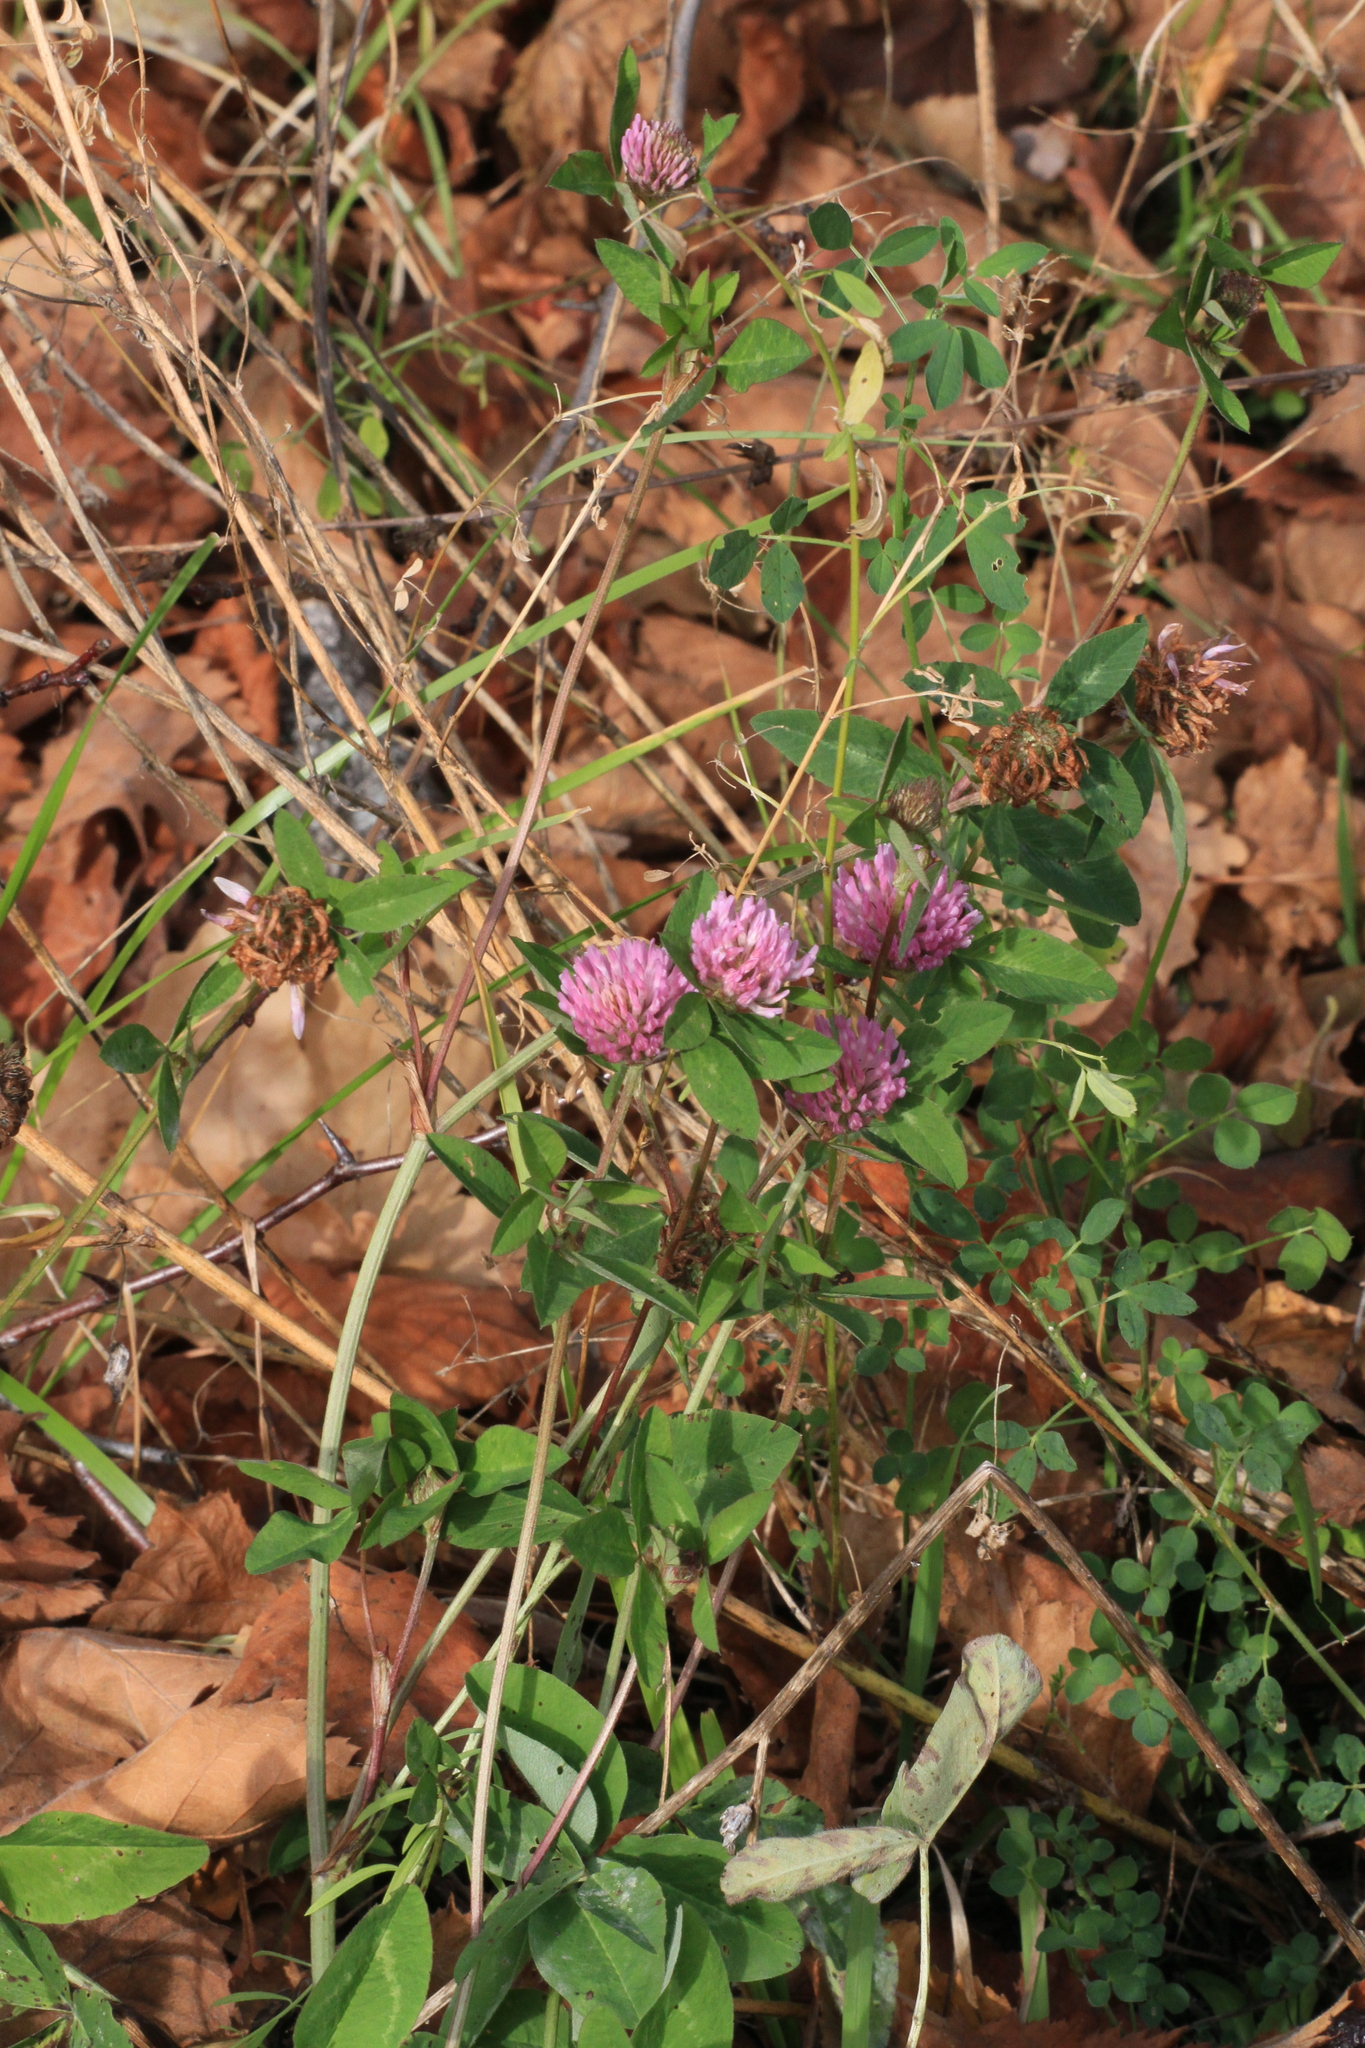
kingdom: Plantae
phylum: Tracheophyta
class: Magnoliopsida
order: Fabales
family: Fabaceae
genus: Trifolium
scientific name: Trifolium pratense
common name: Red clover
